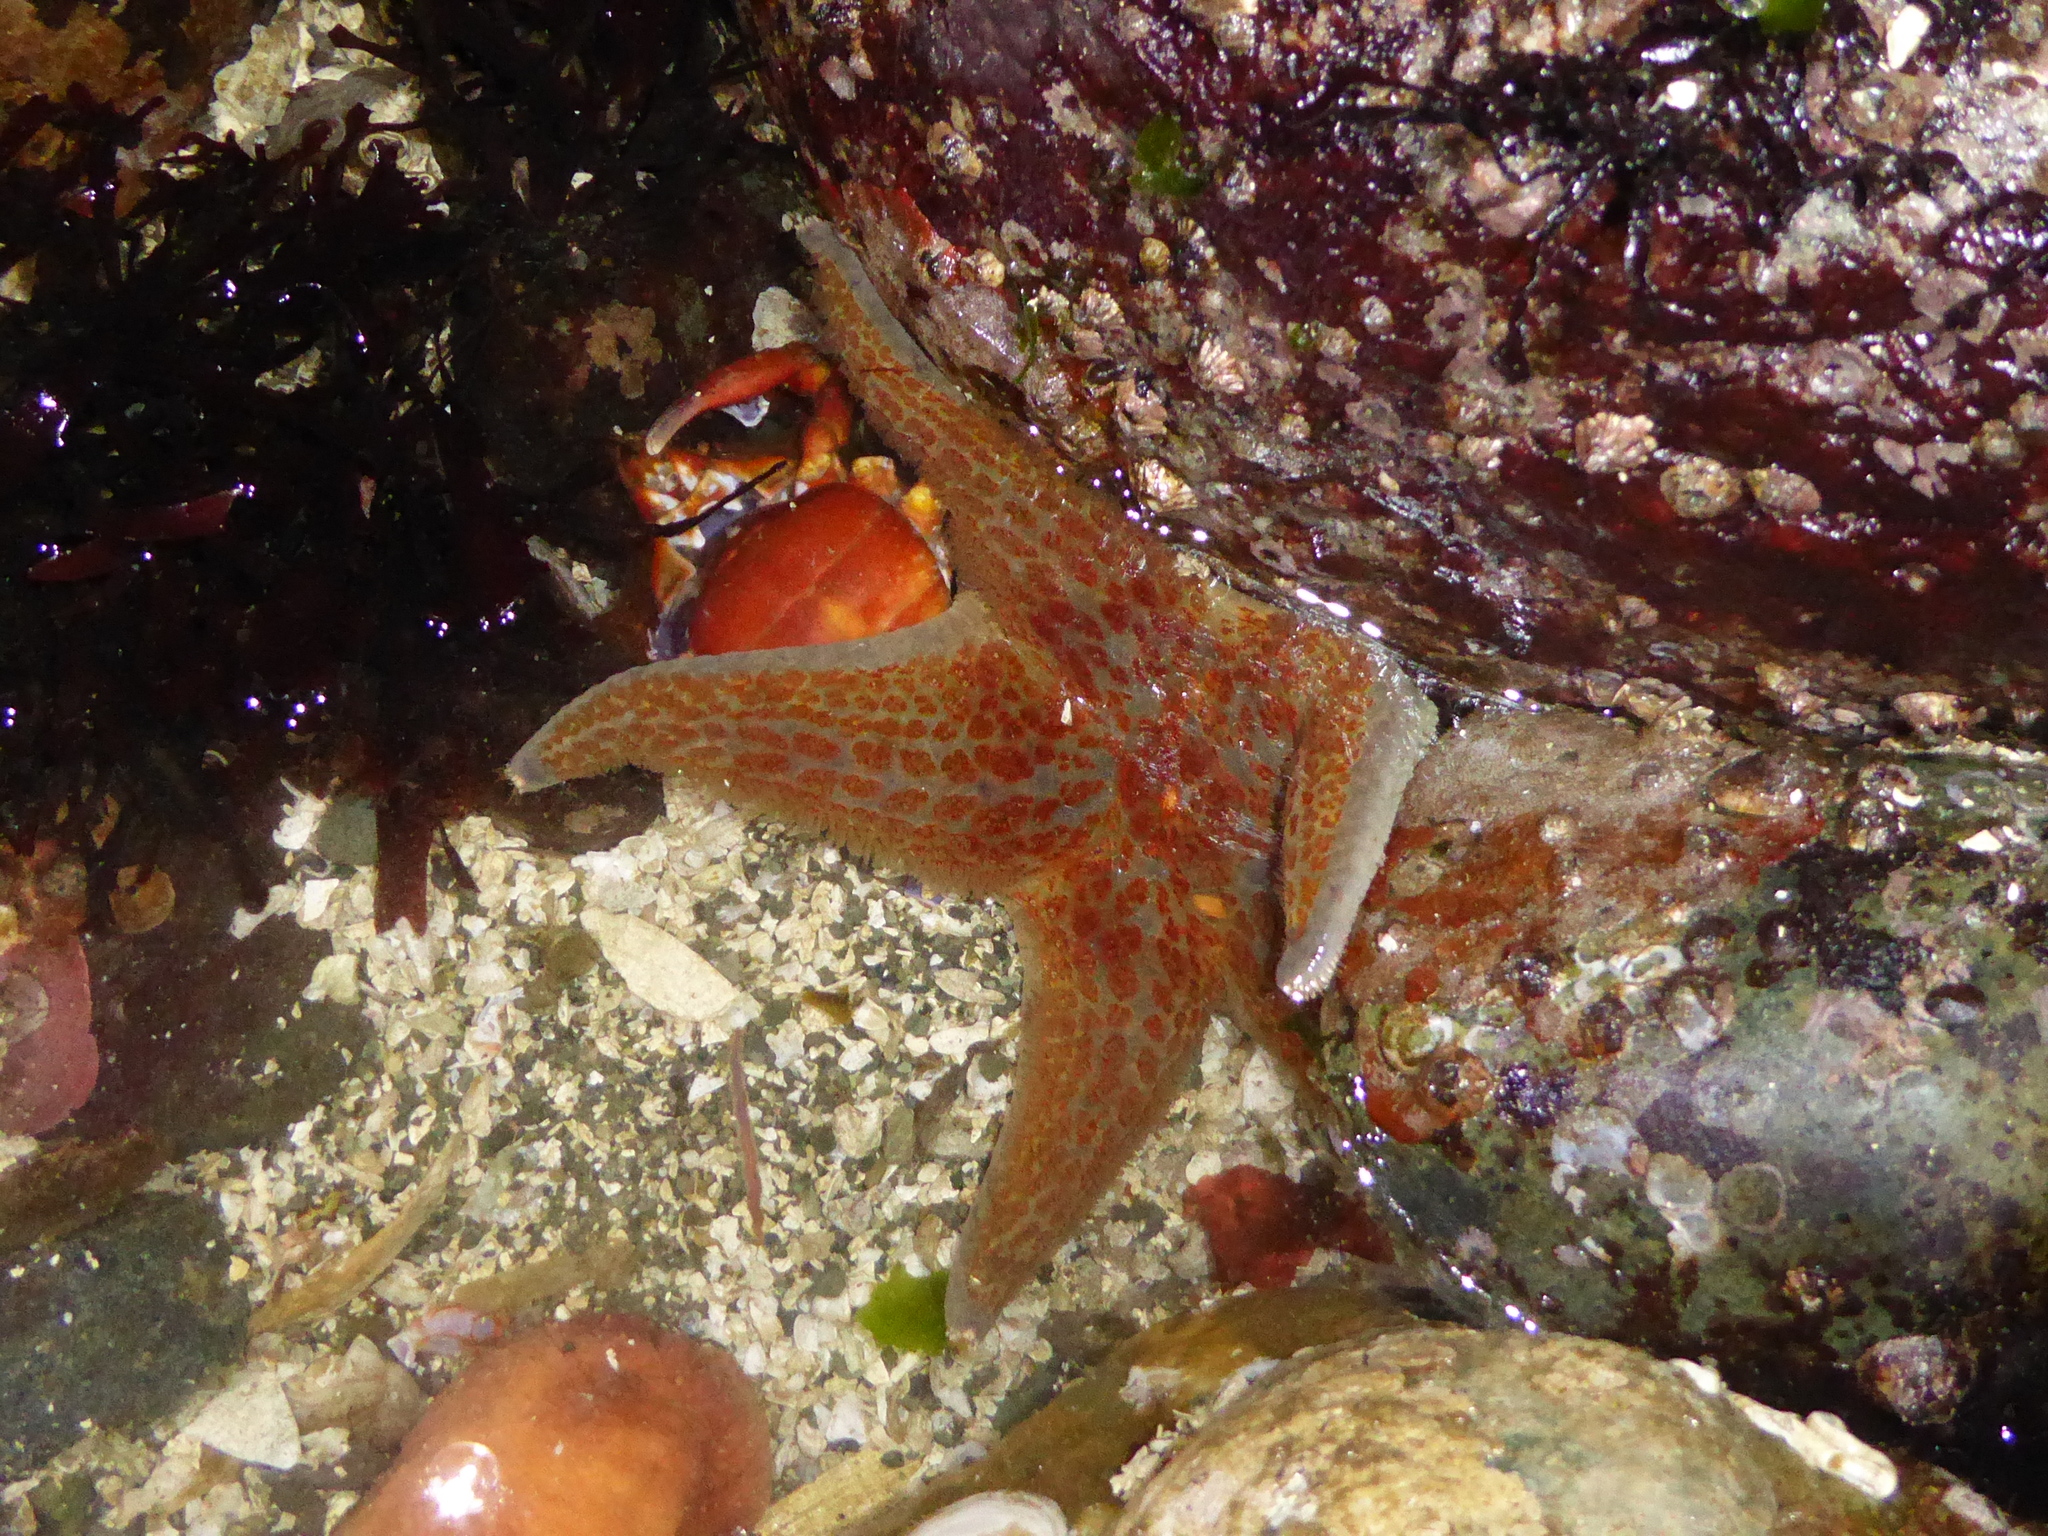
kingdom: Animalia
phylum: Echinodermata
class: Asteroidea
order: Valvatida
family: Asteropseidae
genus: Dermasterias
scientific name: Dermasterias imbricata
